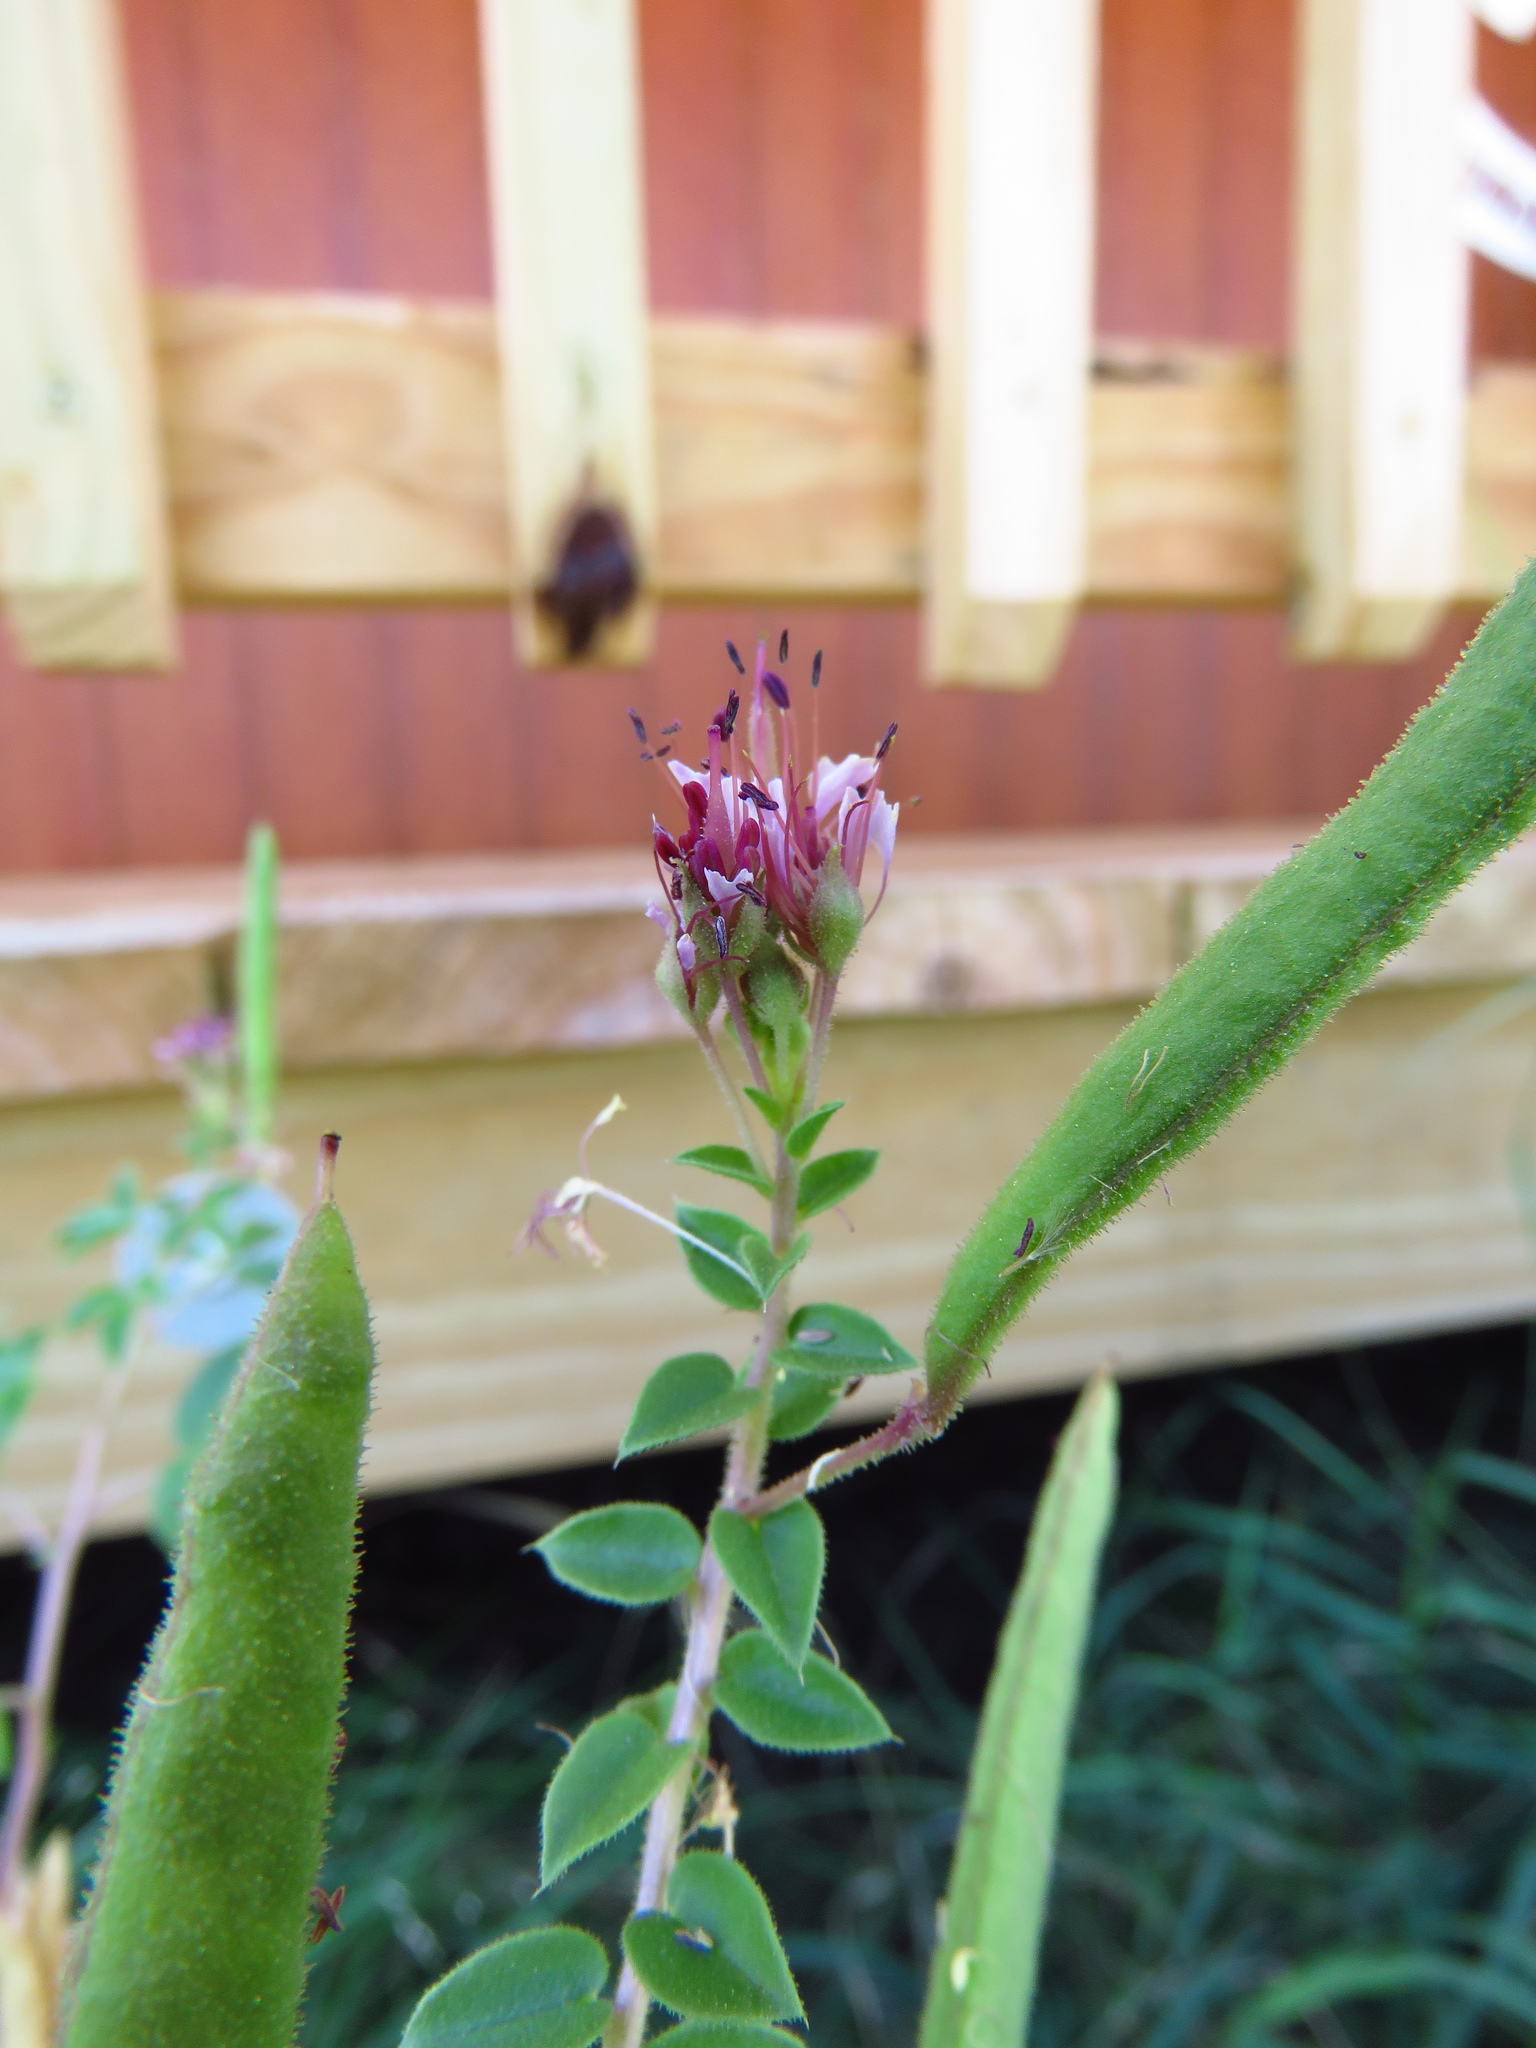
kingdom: Plantae
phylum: Tracheophyta
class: Magnoliopsida
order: Brassicales
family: Cleomaceae
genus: Polanisia
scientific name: Polanisia dodecandra
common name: Clammyweed
